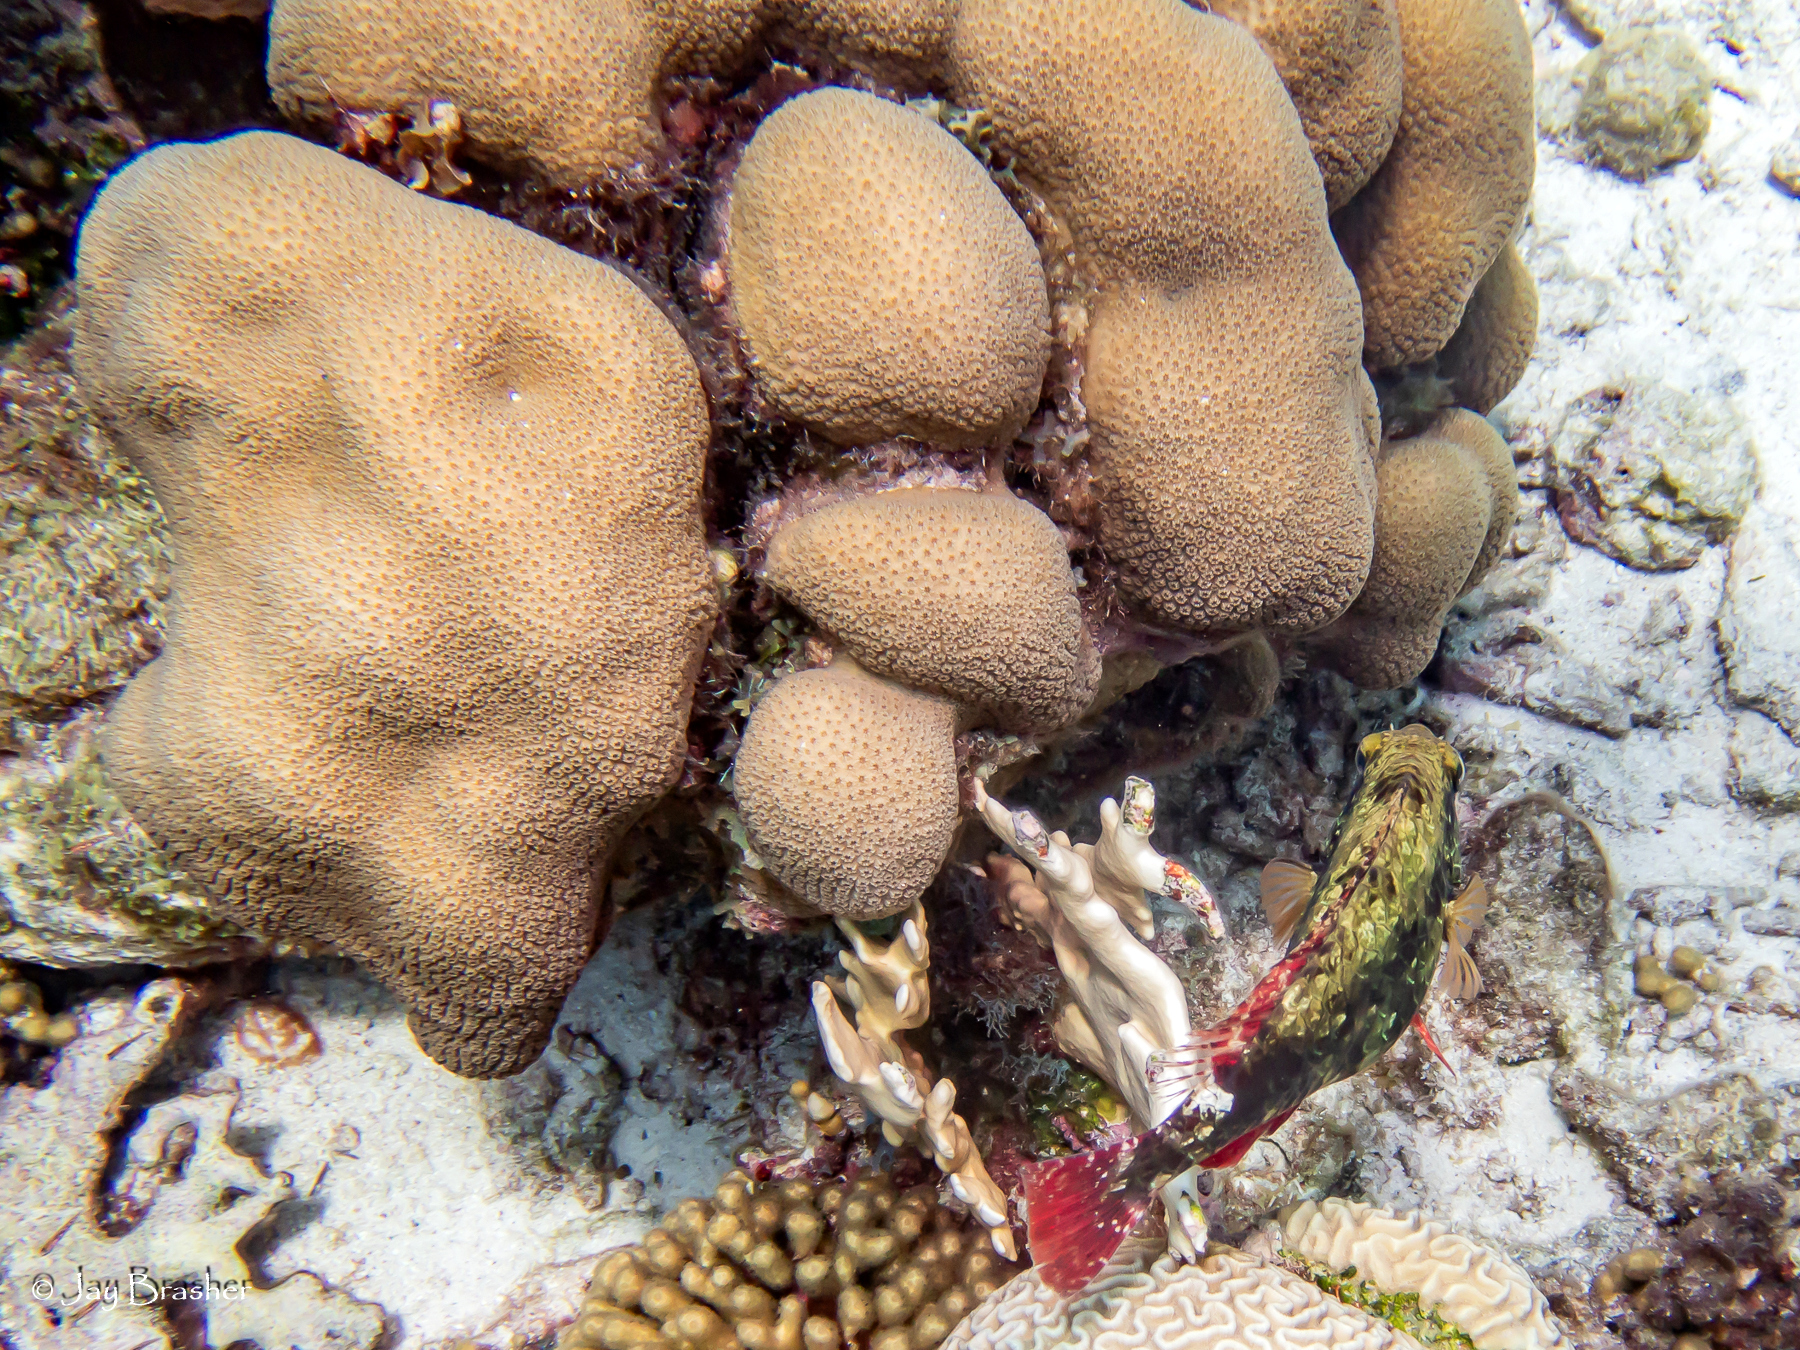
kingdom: Animalia
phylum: Chordata
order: Perciformes
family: Scaridae
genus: Sparisoma
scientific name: Sparisoma aurofrenatum
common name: Redband parrotfish
